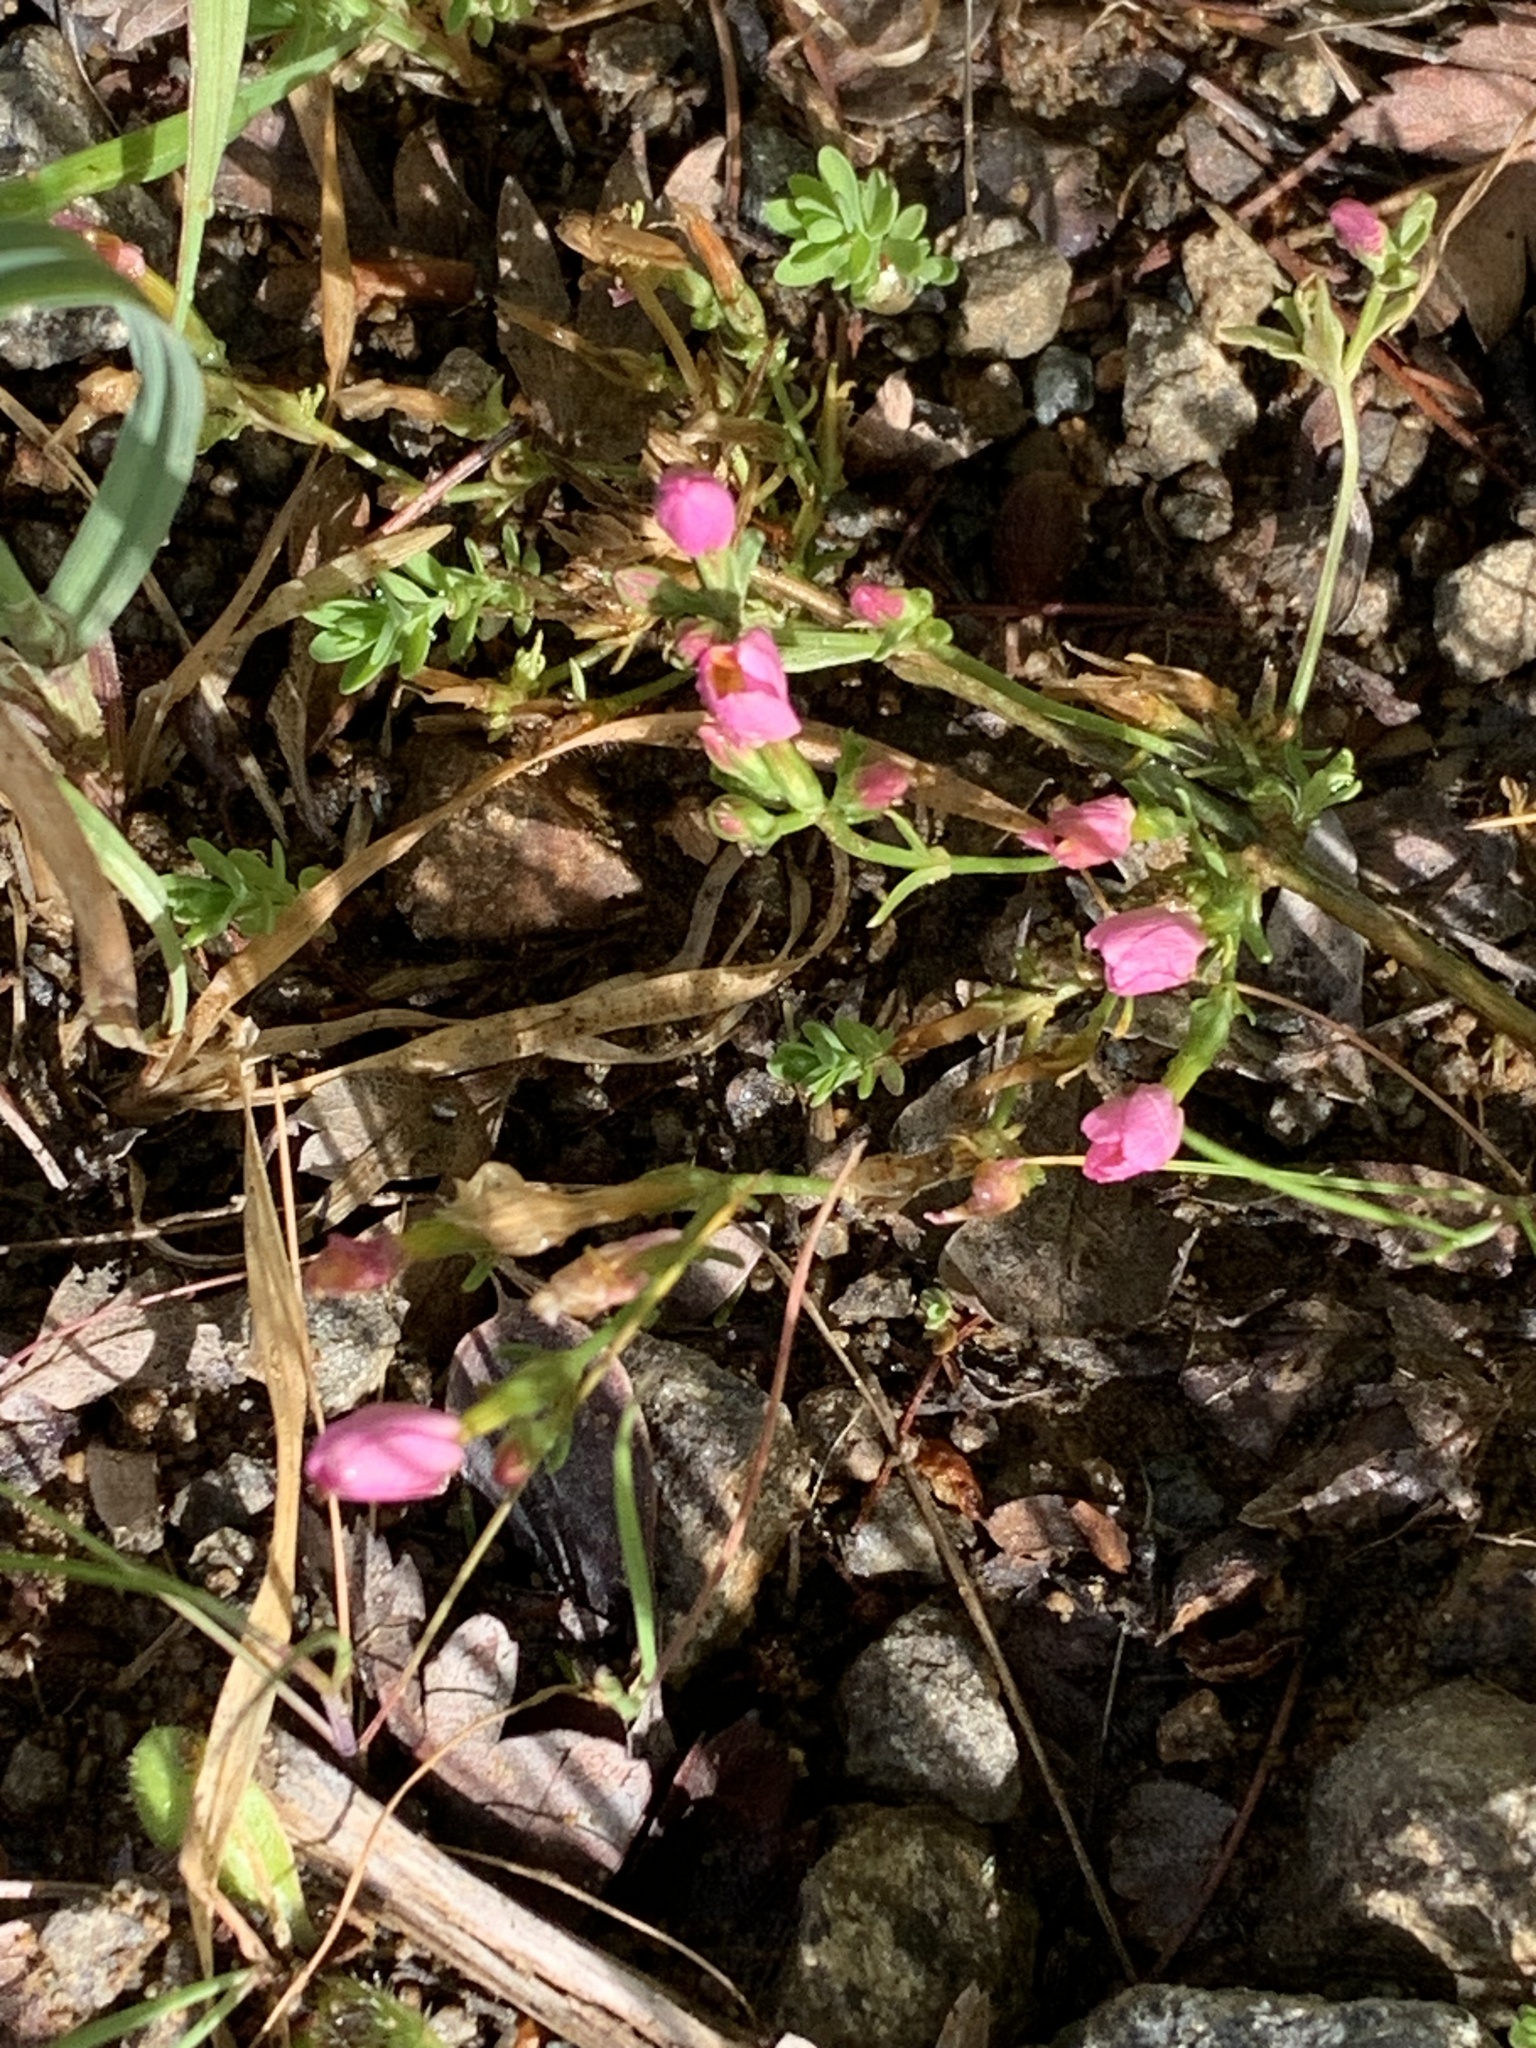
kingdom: Plantae
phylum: Tracheophyta
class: Magnoliopsida
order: Gentianales
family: Gentianaceae
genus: Centaurium
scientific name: Centaurium erythraea
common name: Common centaury
